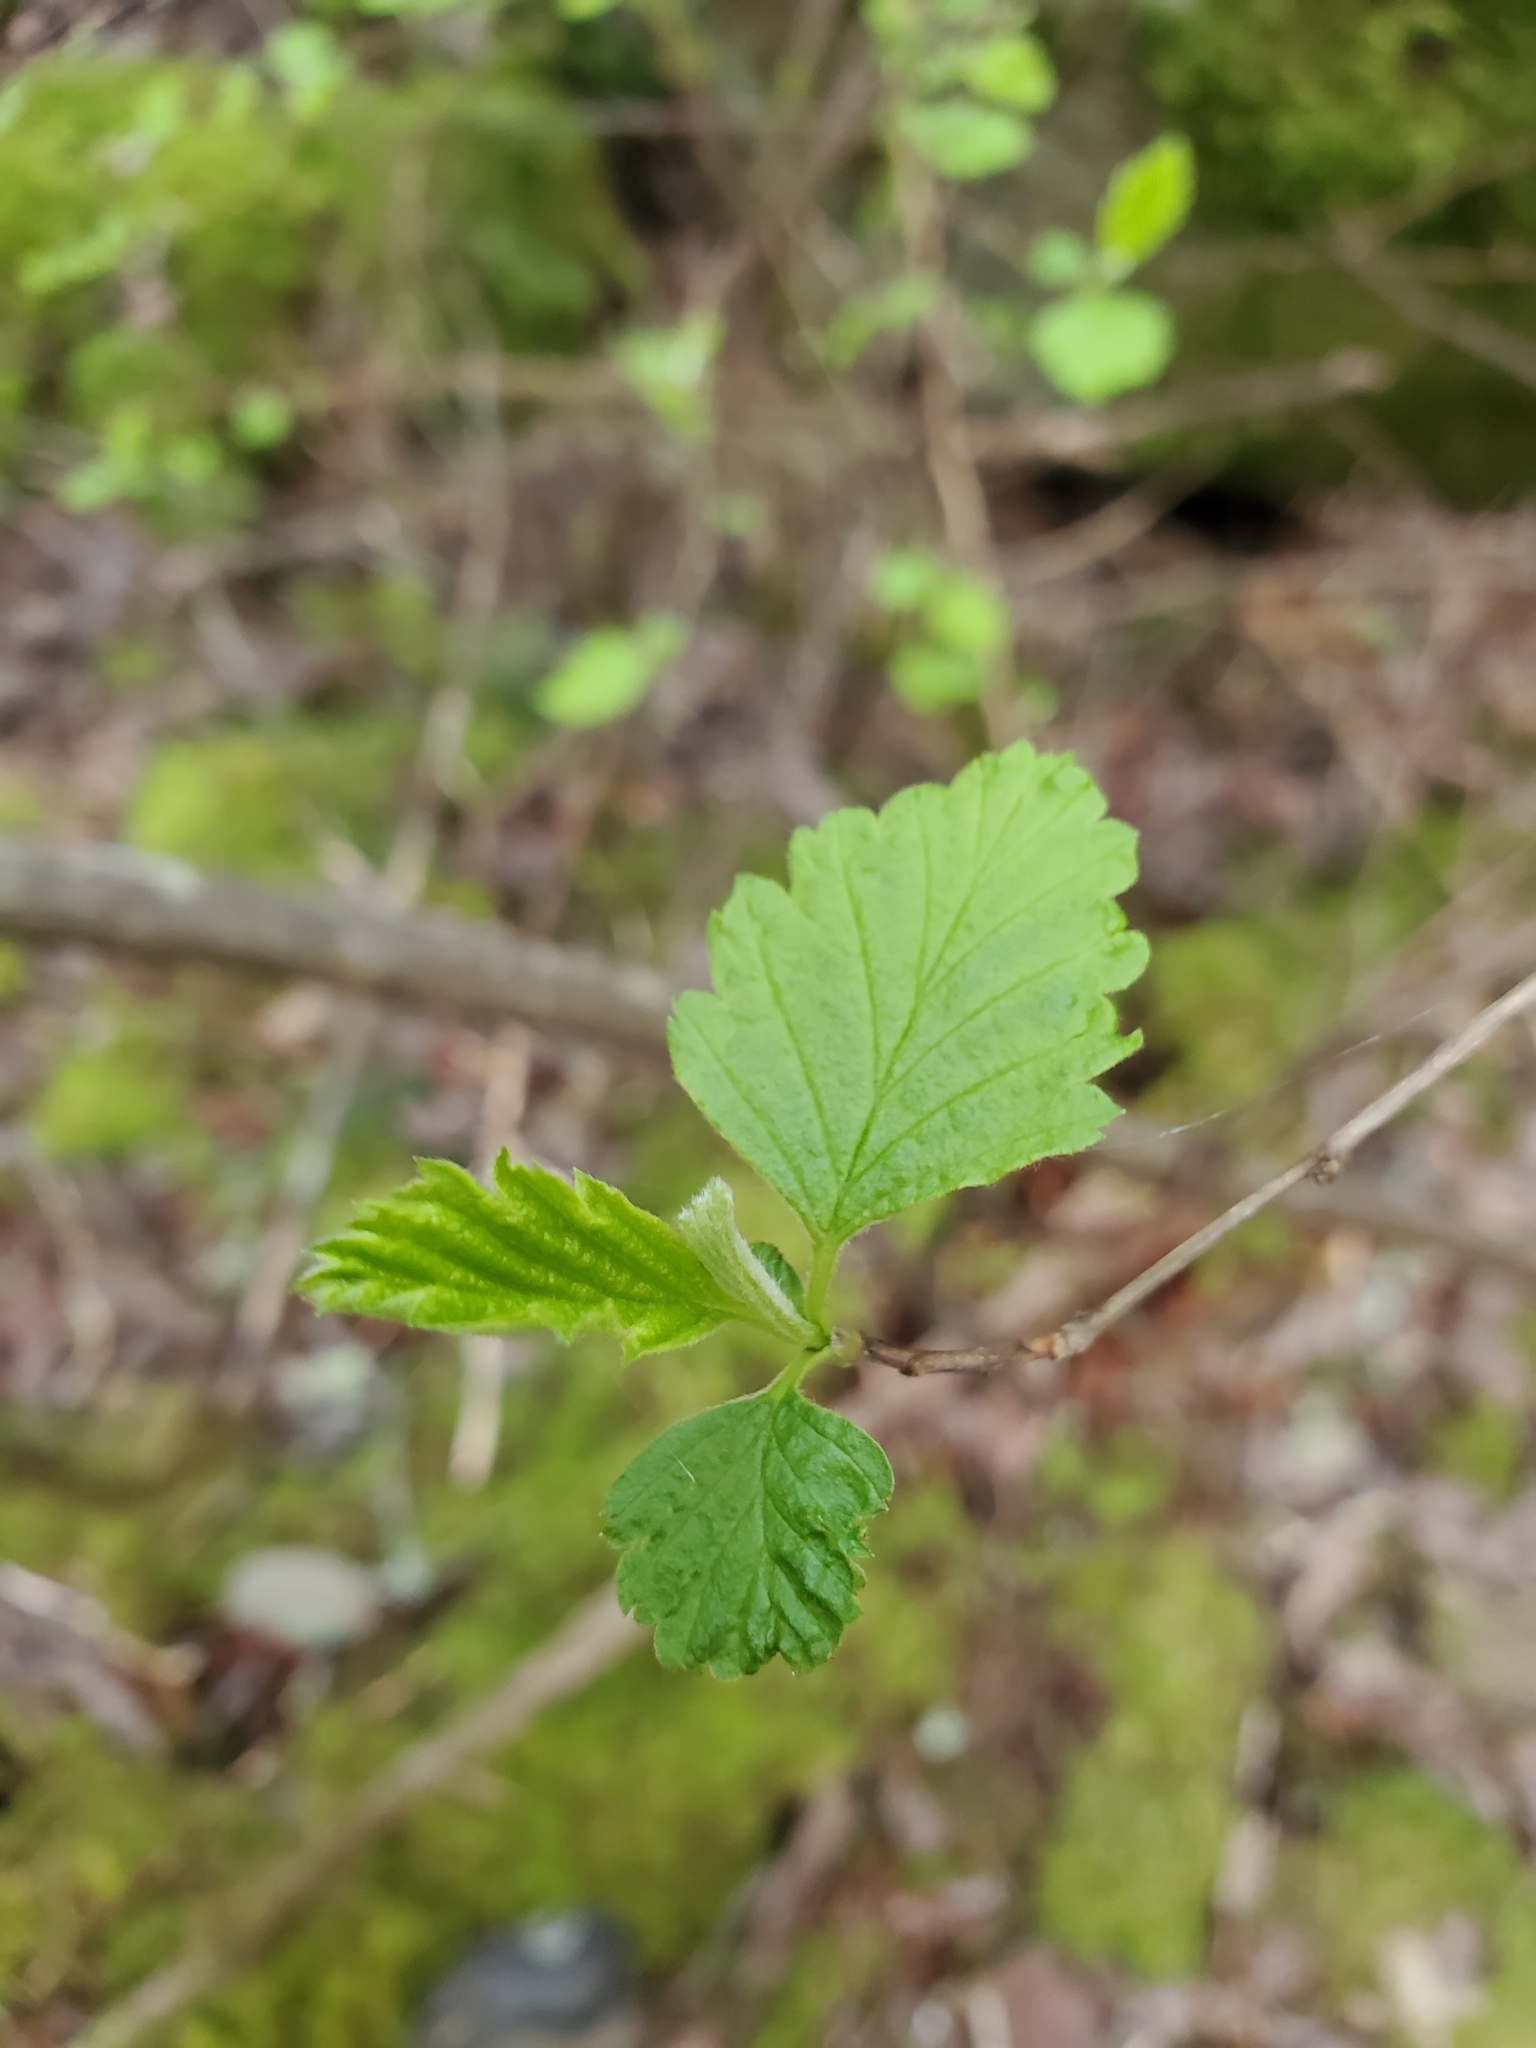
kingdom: Plantae
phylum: Tracheophyta
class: Magnoliopsida
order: Rosales
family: Rosaceae
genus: Holodiscus
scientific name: Holodiscus discolor
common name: Oceanspray
